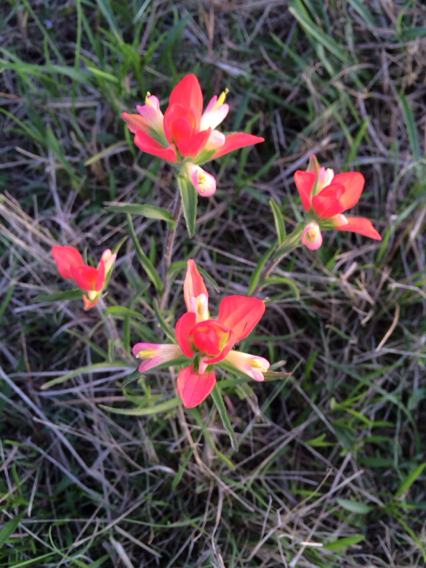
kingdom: Plantae
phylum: Tracheophyta
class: Magnoliopsida
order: Lamiales
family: Orobanchaceae
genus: Castilleja
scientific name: Castilleja indivisa
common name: Texas paintbrush
